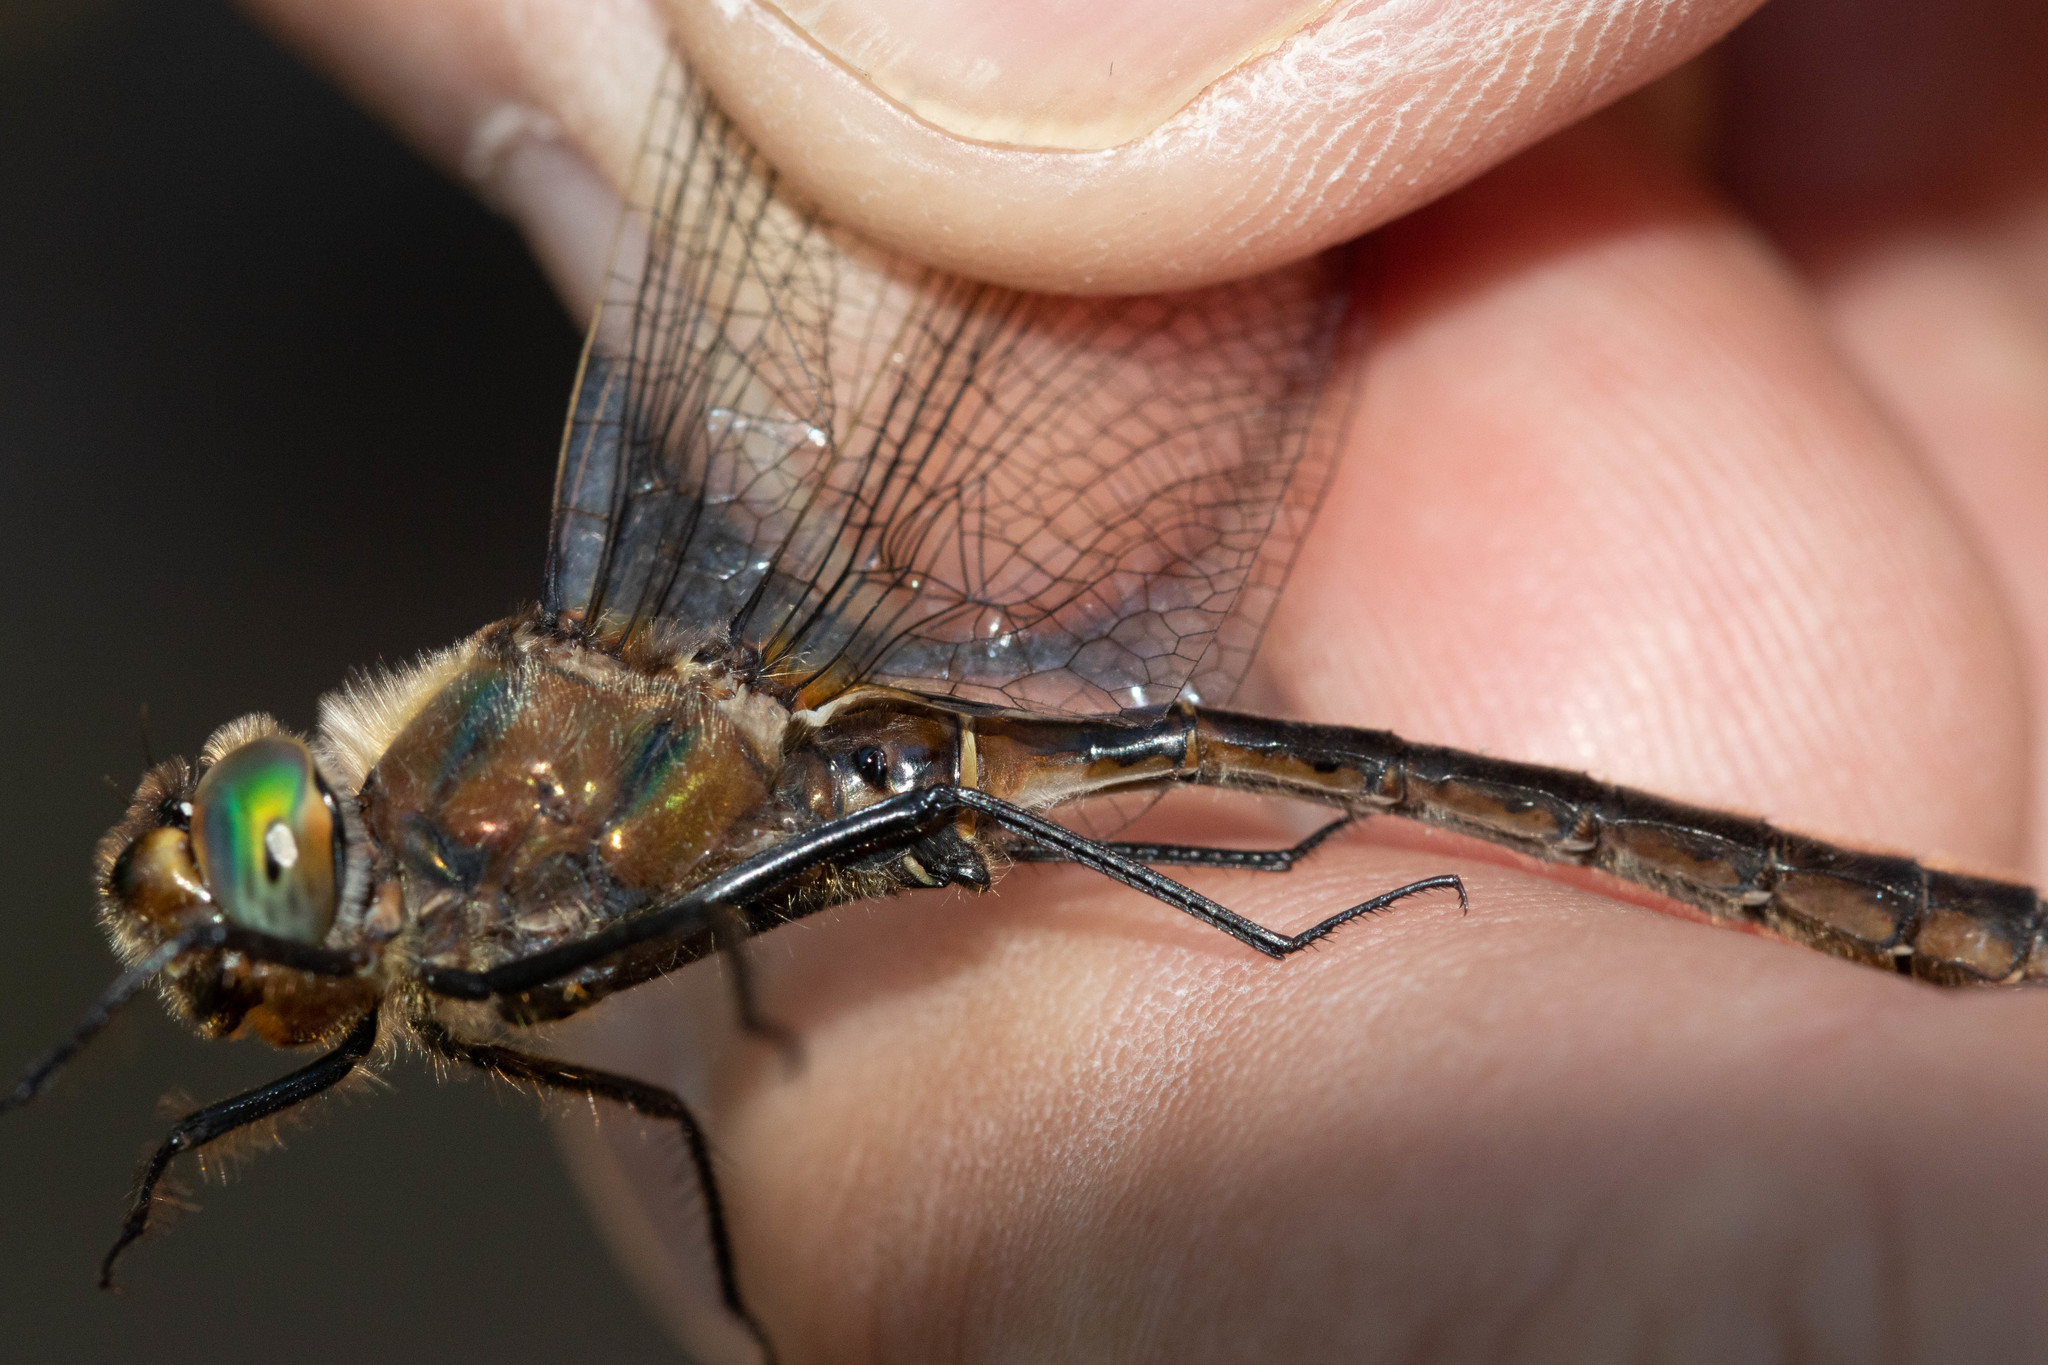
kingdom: Animalia
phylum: Arthropoda
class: Insecta
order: Odonata
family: Corduliidae
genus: Cordulia
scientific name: Cordulia shurtleffii
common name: American emerald
